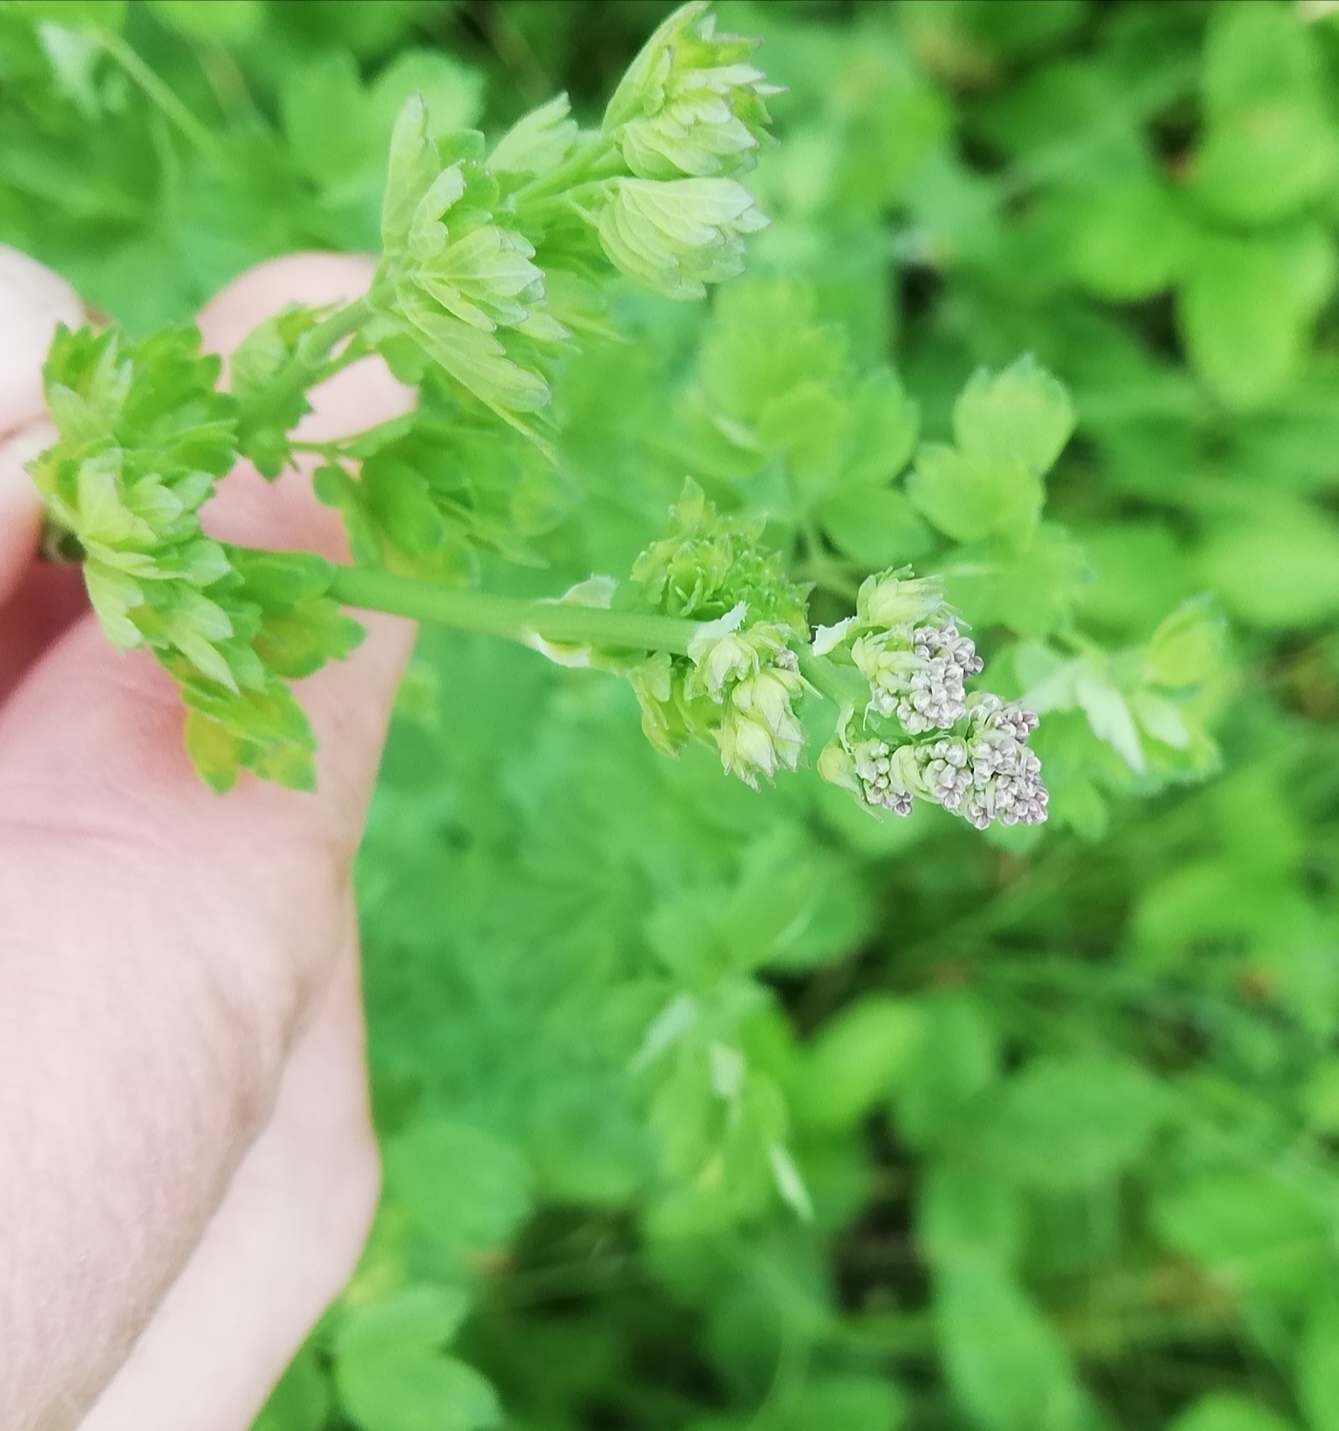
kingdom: Plantae
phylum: Tracheophyta
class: Magnoliopsida
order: Ranunculales
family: Ranunculaceae
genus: Thalictrum
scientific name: Thalictrum minus
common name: Lesser meadow-rue
